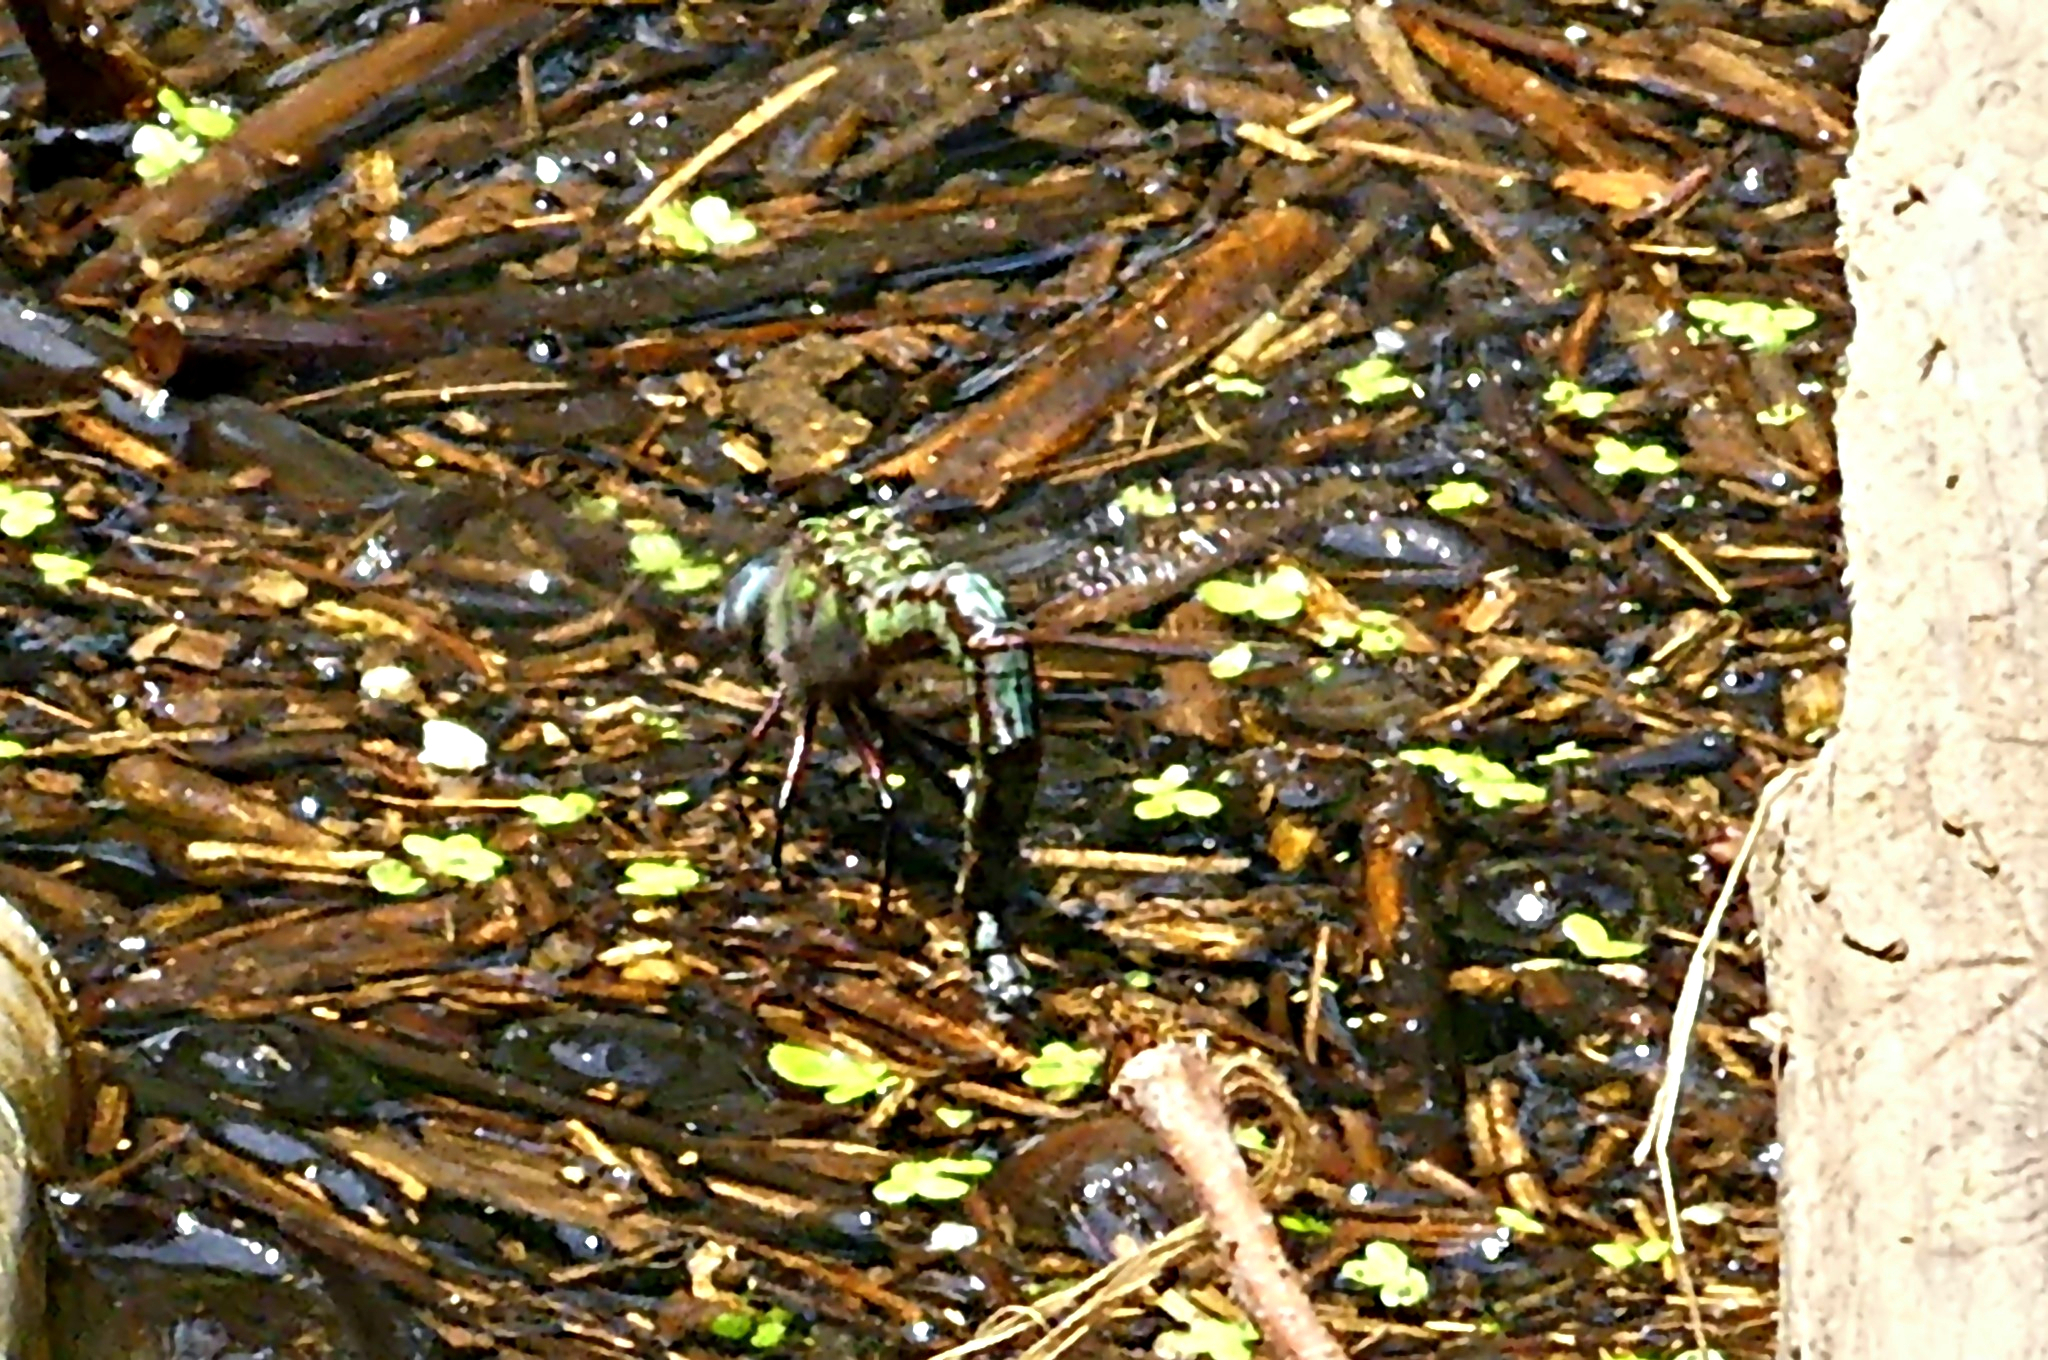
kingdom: Animalia
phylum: Arthropoda
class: Insecta
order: Odonata
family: Aeshnidae
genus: Nasiaeschna
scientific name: Nasiaeschna pentacantha
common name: Cyrano darner
